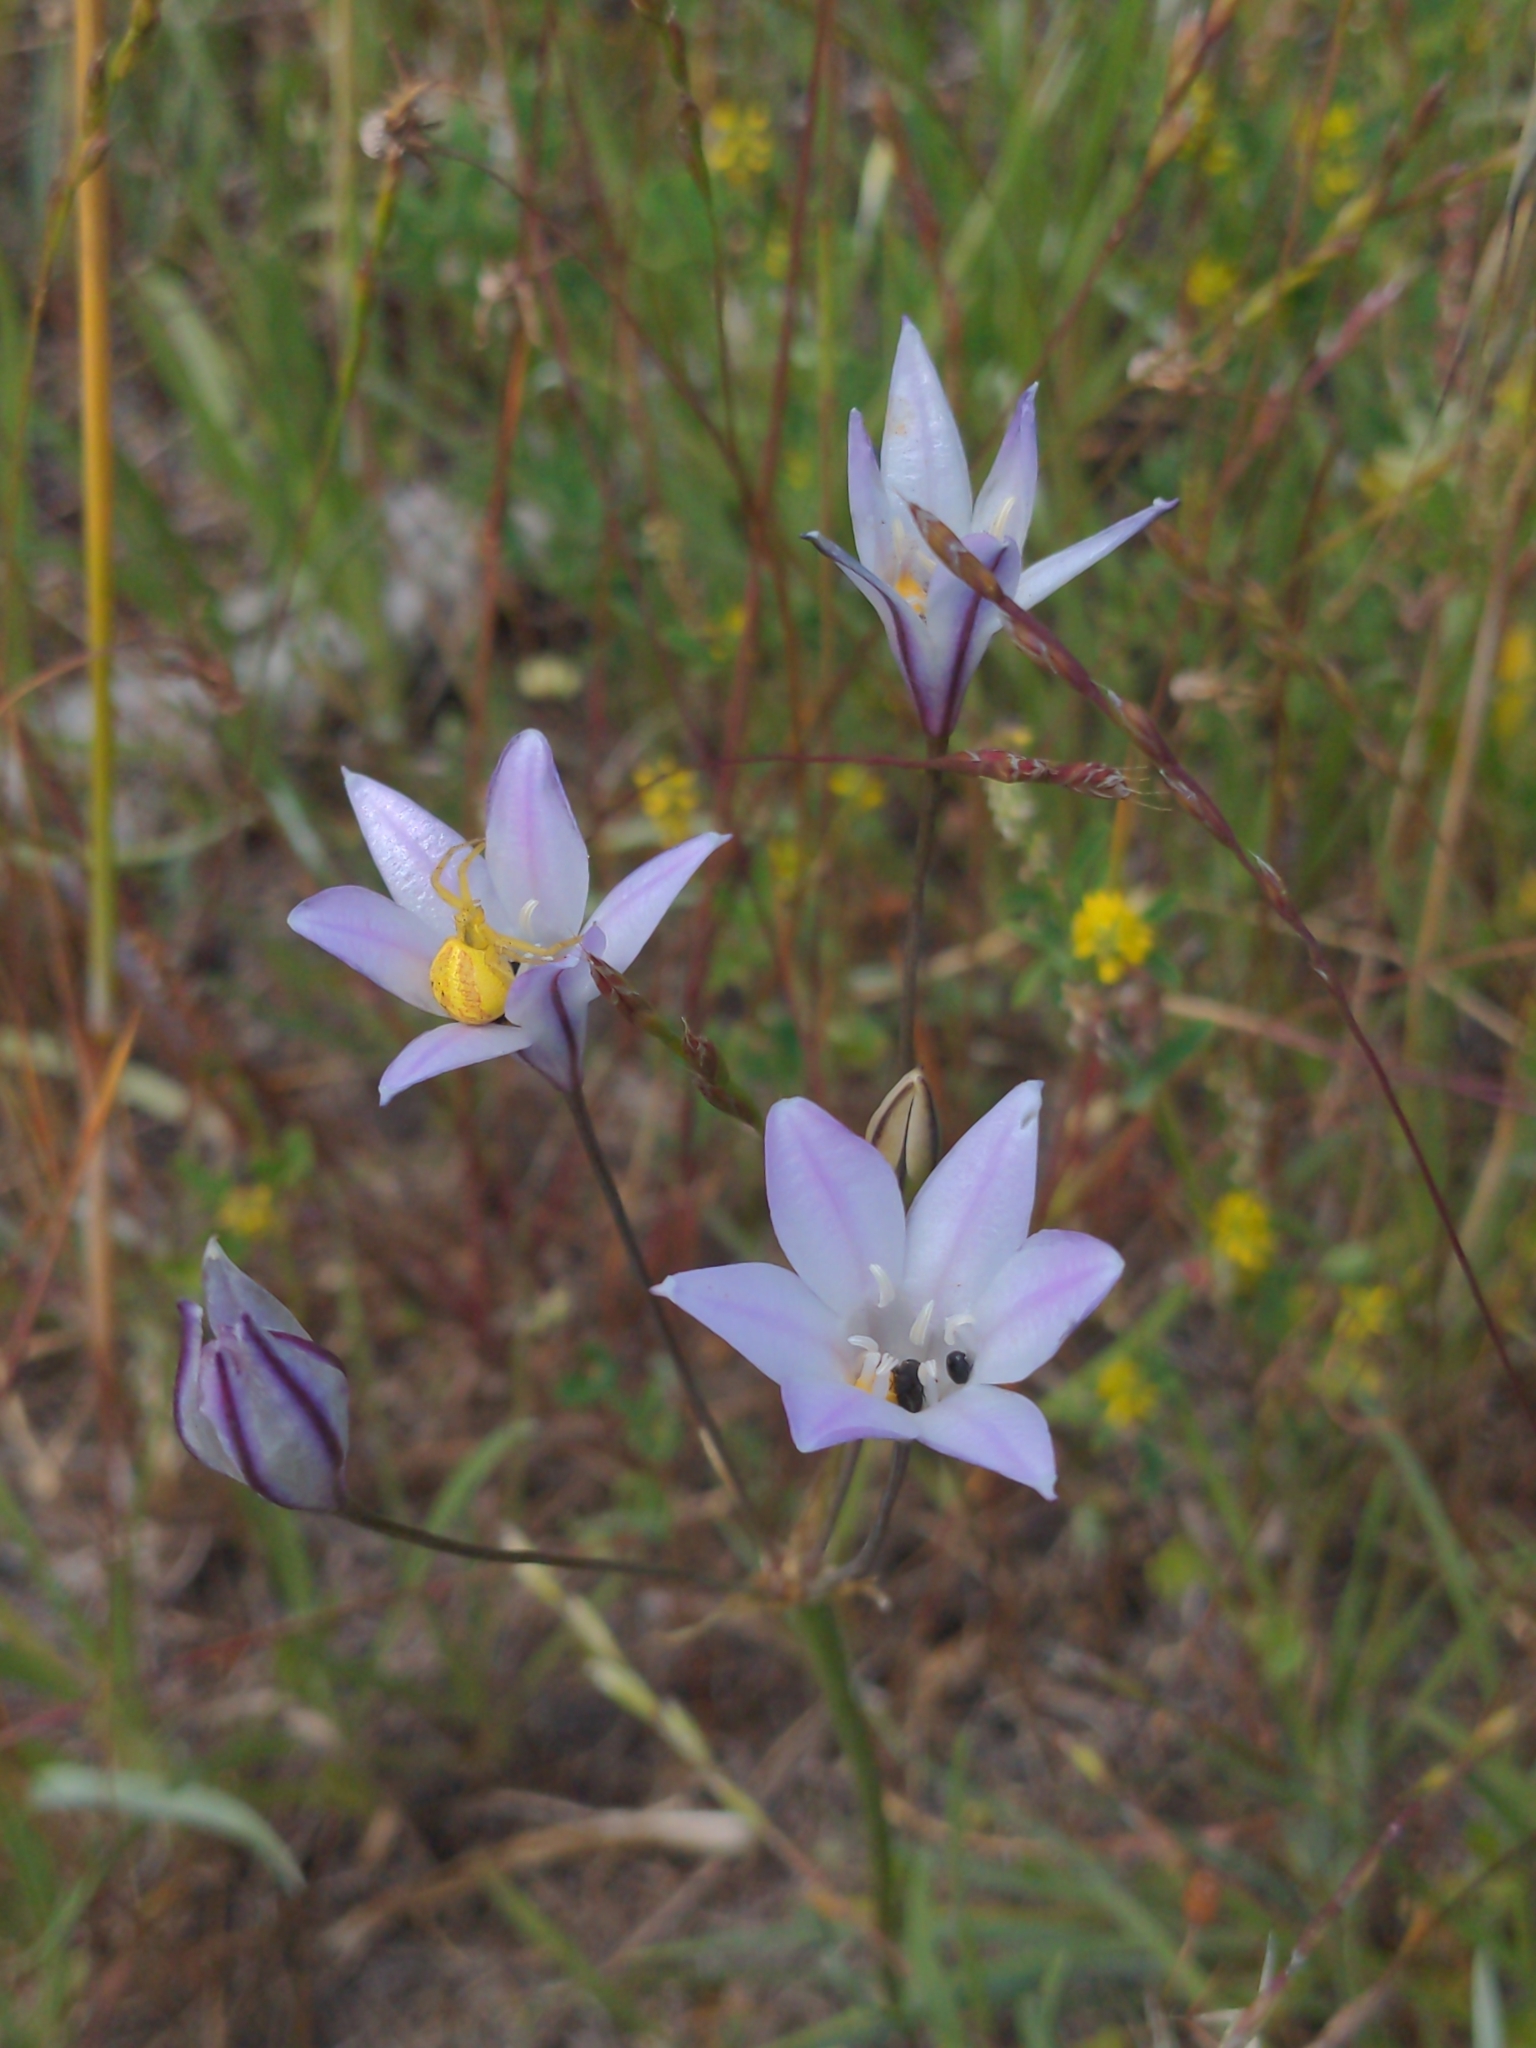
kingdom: Plantae
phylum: Tracheophyta
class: Liliopsida
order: Asparagales
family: Asparagaceae
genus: Triteleia
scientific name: Triteleia peduncularis
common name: Long-ray brodiaea
